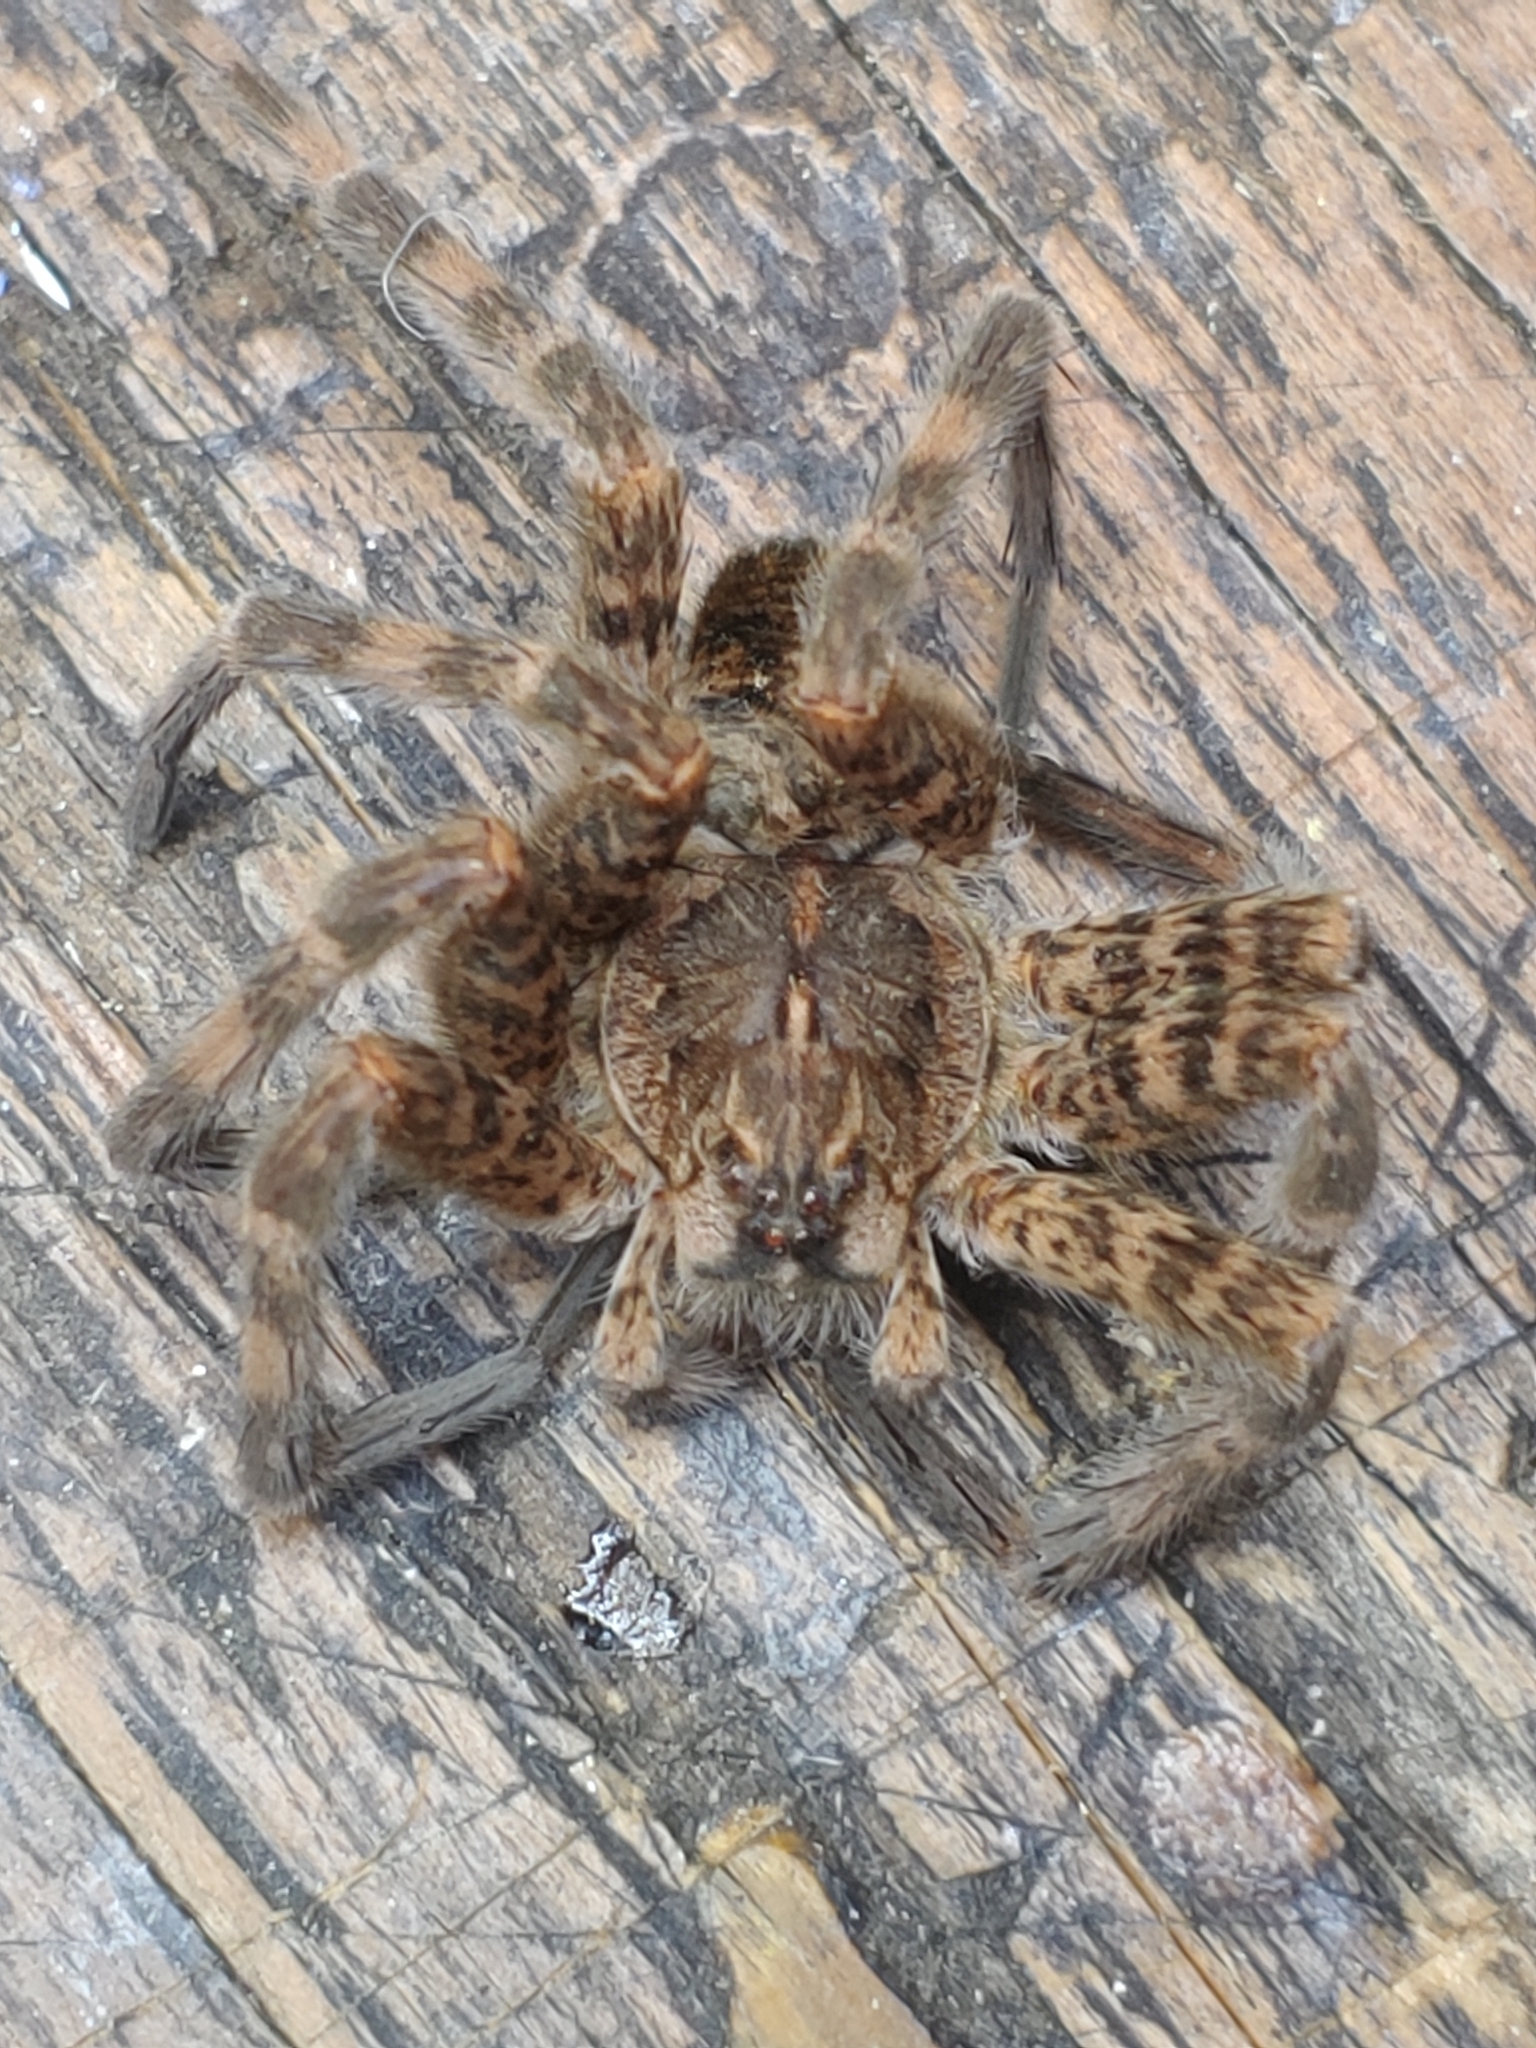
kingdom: Animalia
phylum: Arthropoda
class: Arachnida
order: Araneae
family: Pisauridae
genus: Dolomedes
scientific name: Dolomedes tenebrosus
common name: Dark fishing spider
